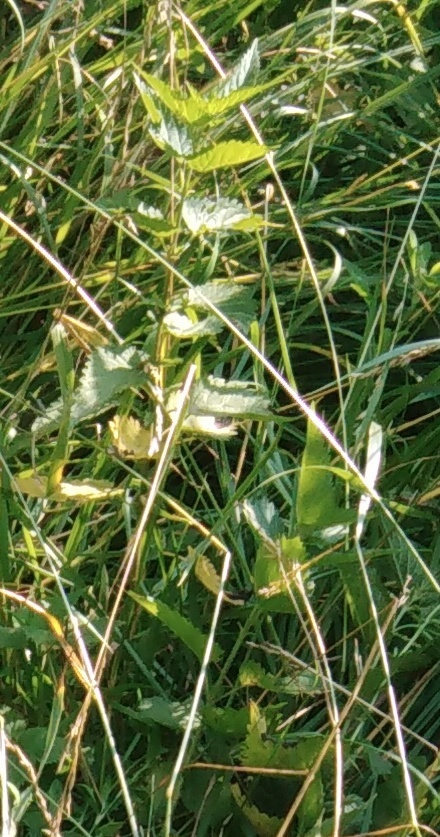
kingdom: Plantae
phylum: Tracheophyta
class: Magnoliopsida
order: Rosales
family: Urticaceae
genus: Urtica
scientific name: Urtica dioica
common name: Common nettle
